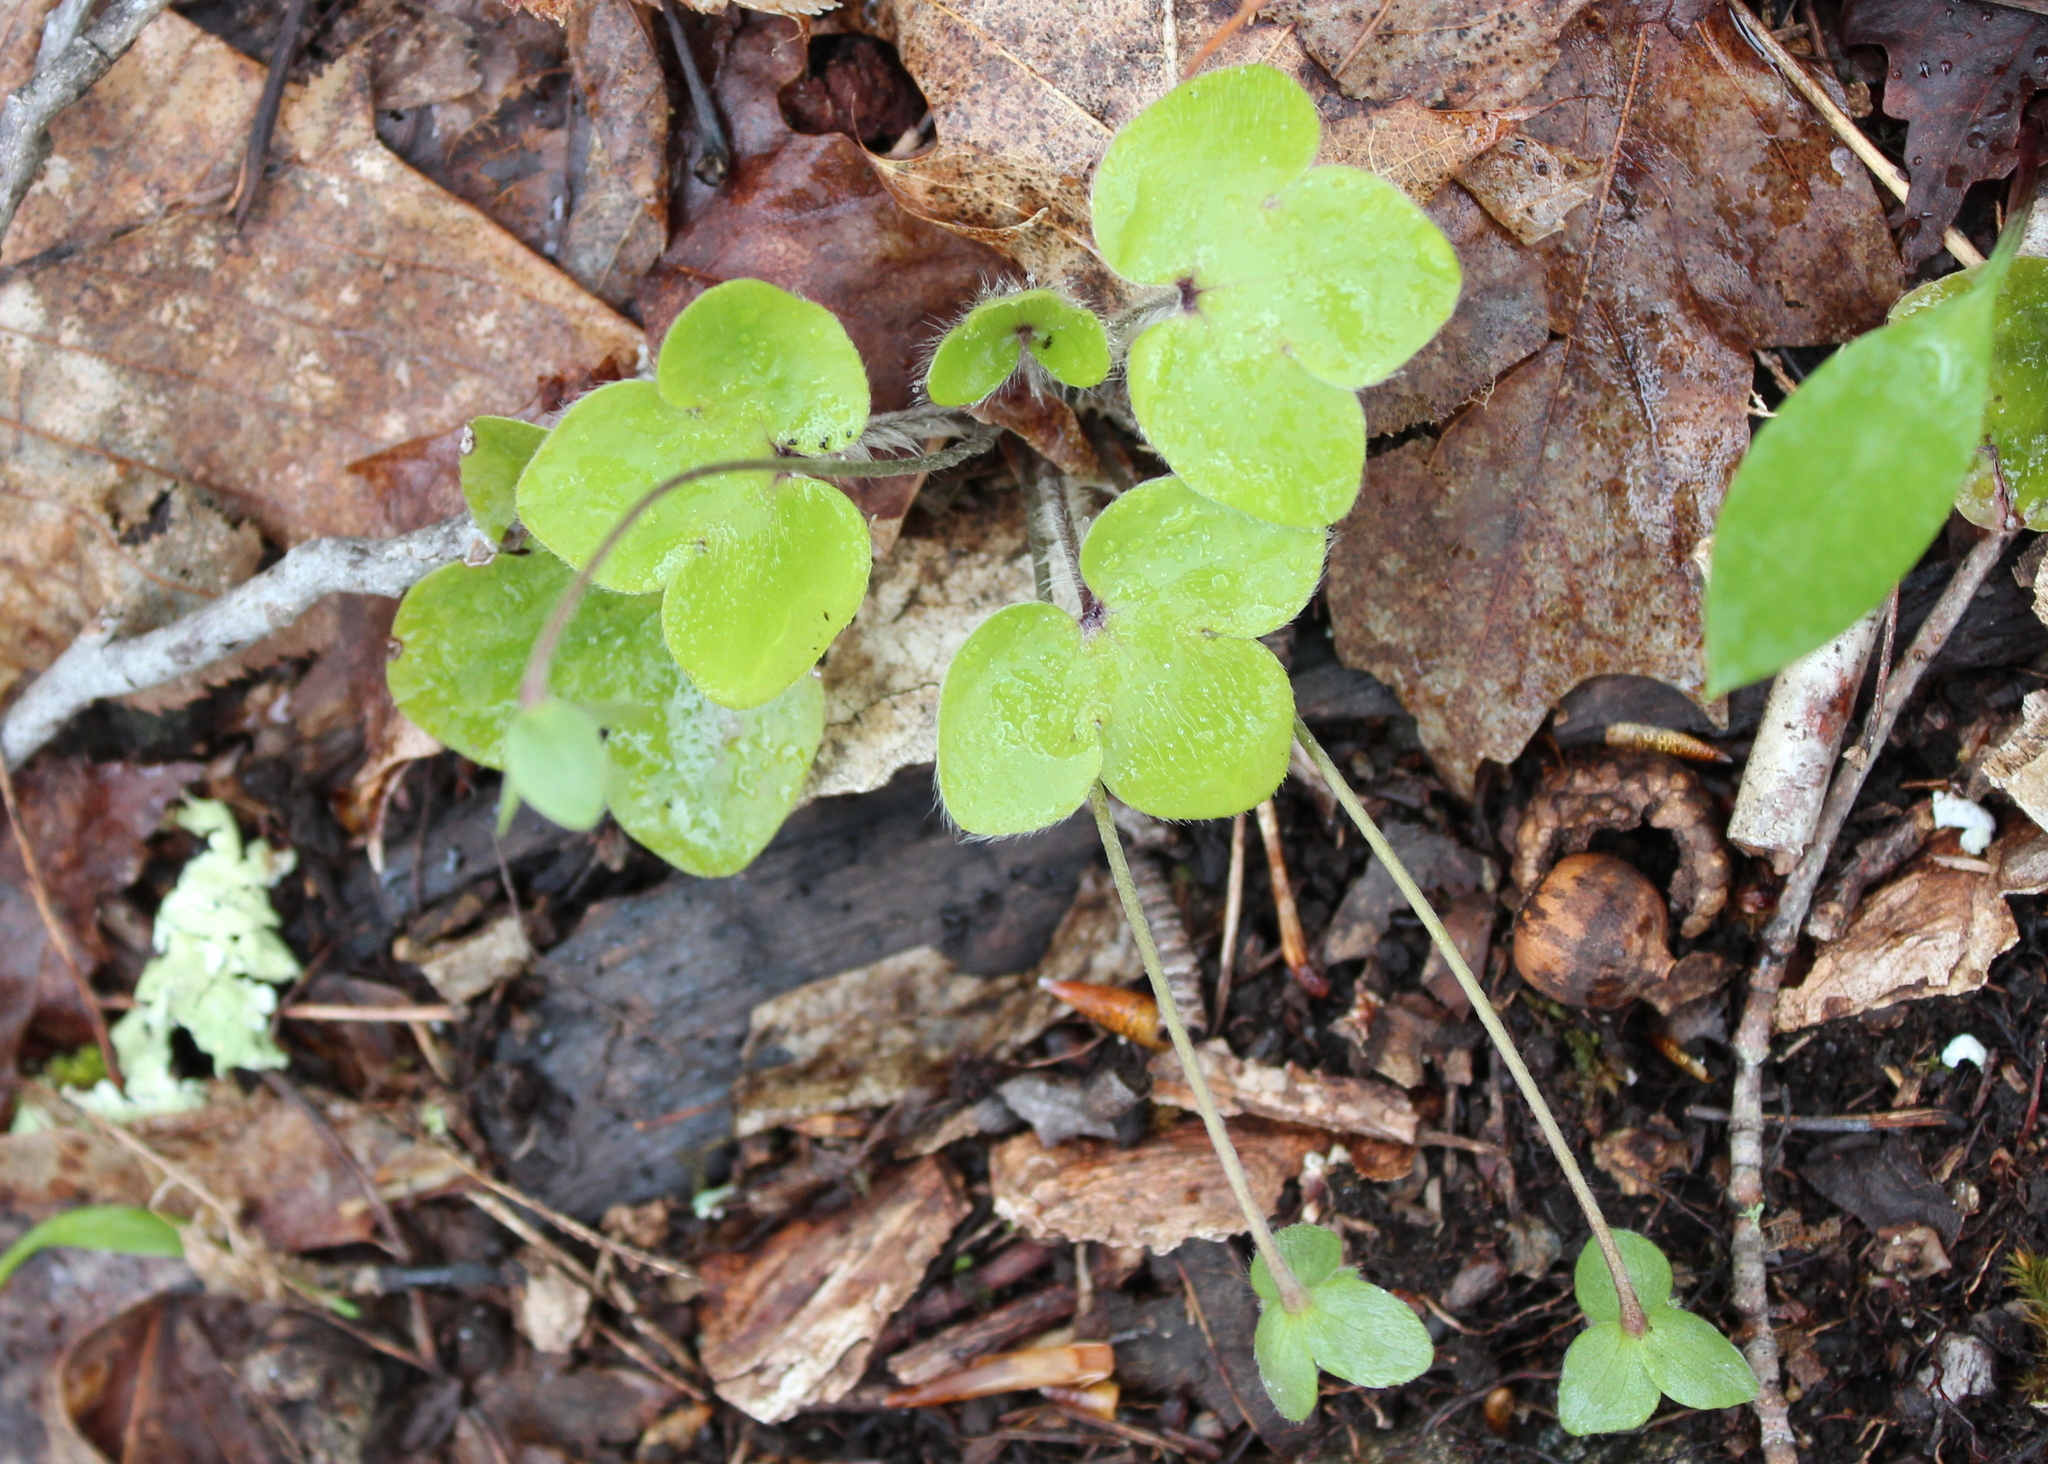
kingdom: Plantae
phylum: Tracheophyta
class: Magnoliopsida
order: Ranunculales
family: Ranunculaceae
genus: Hepatica
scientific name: Hepatica americana
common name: American hepatica
